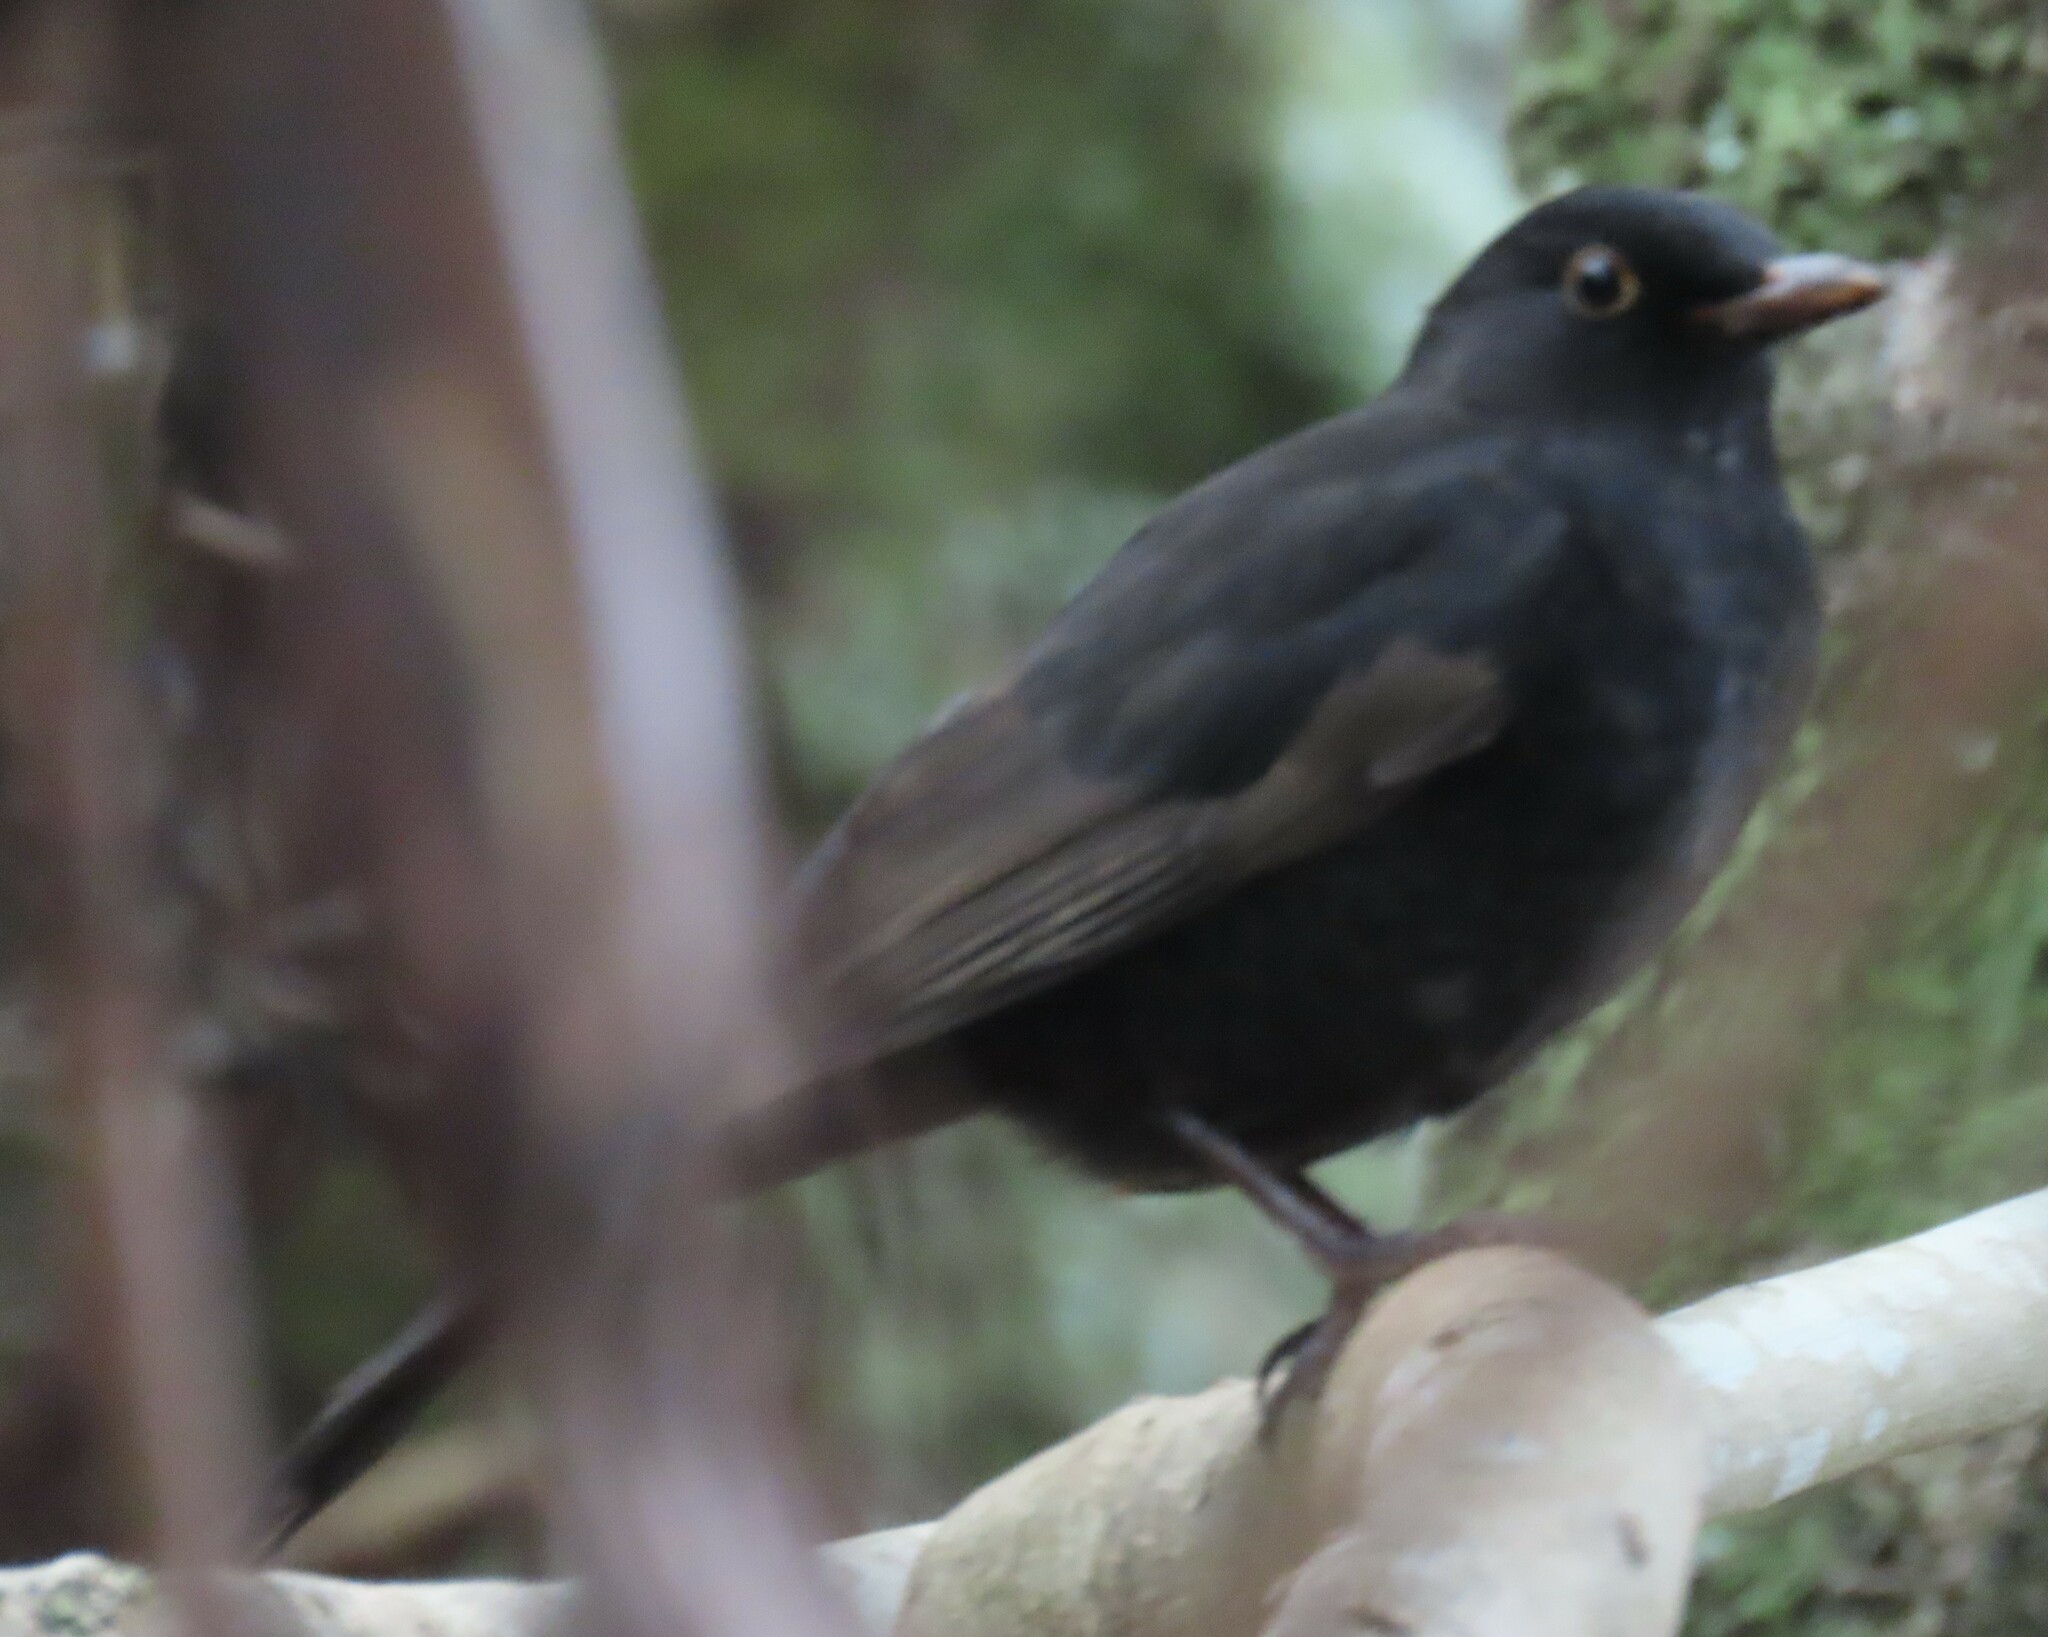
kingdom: Animalia
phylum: Chordata
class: Aves
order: Passeriformes
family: Turdidae
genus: Turdus
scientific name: Turdus merula
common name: Common blackbird
